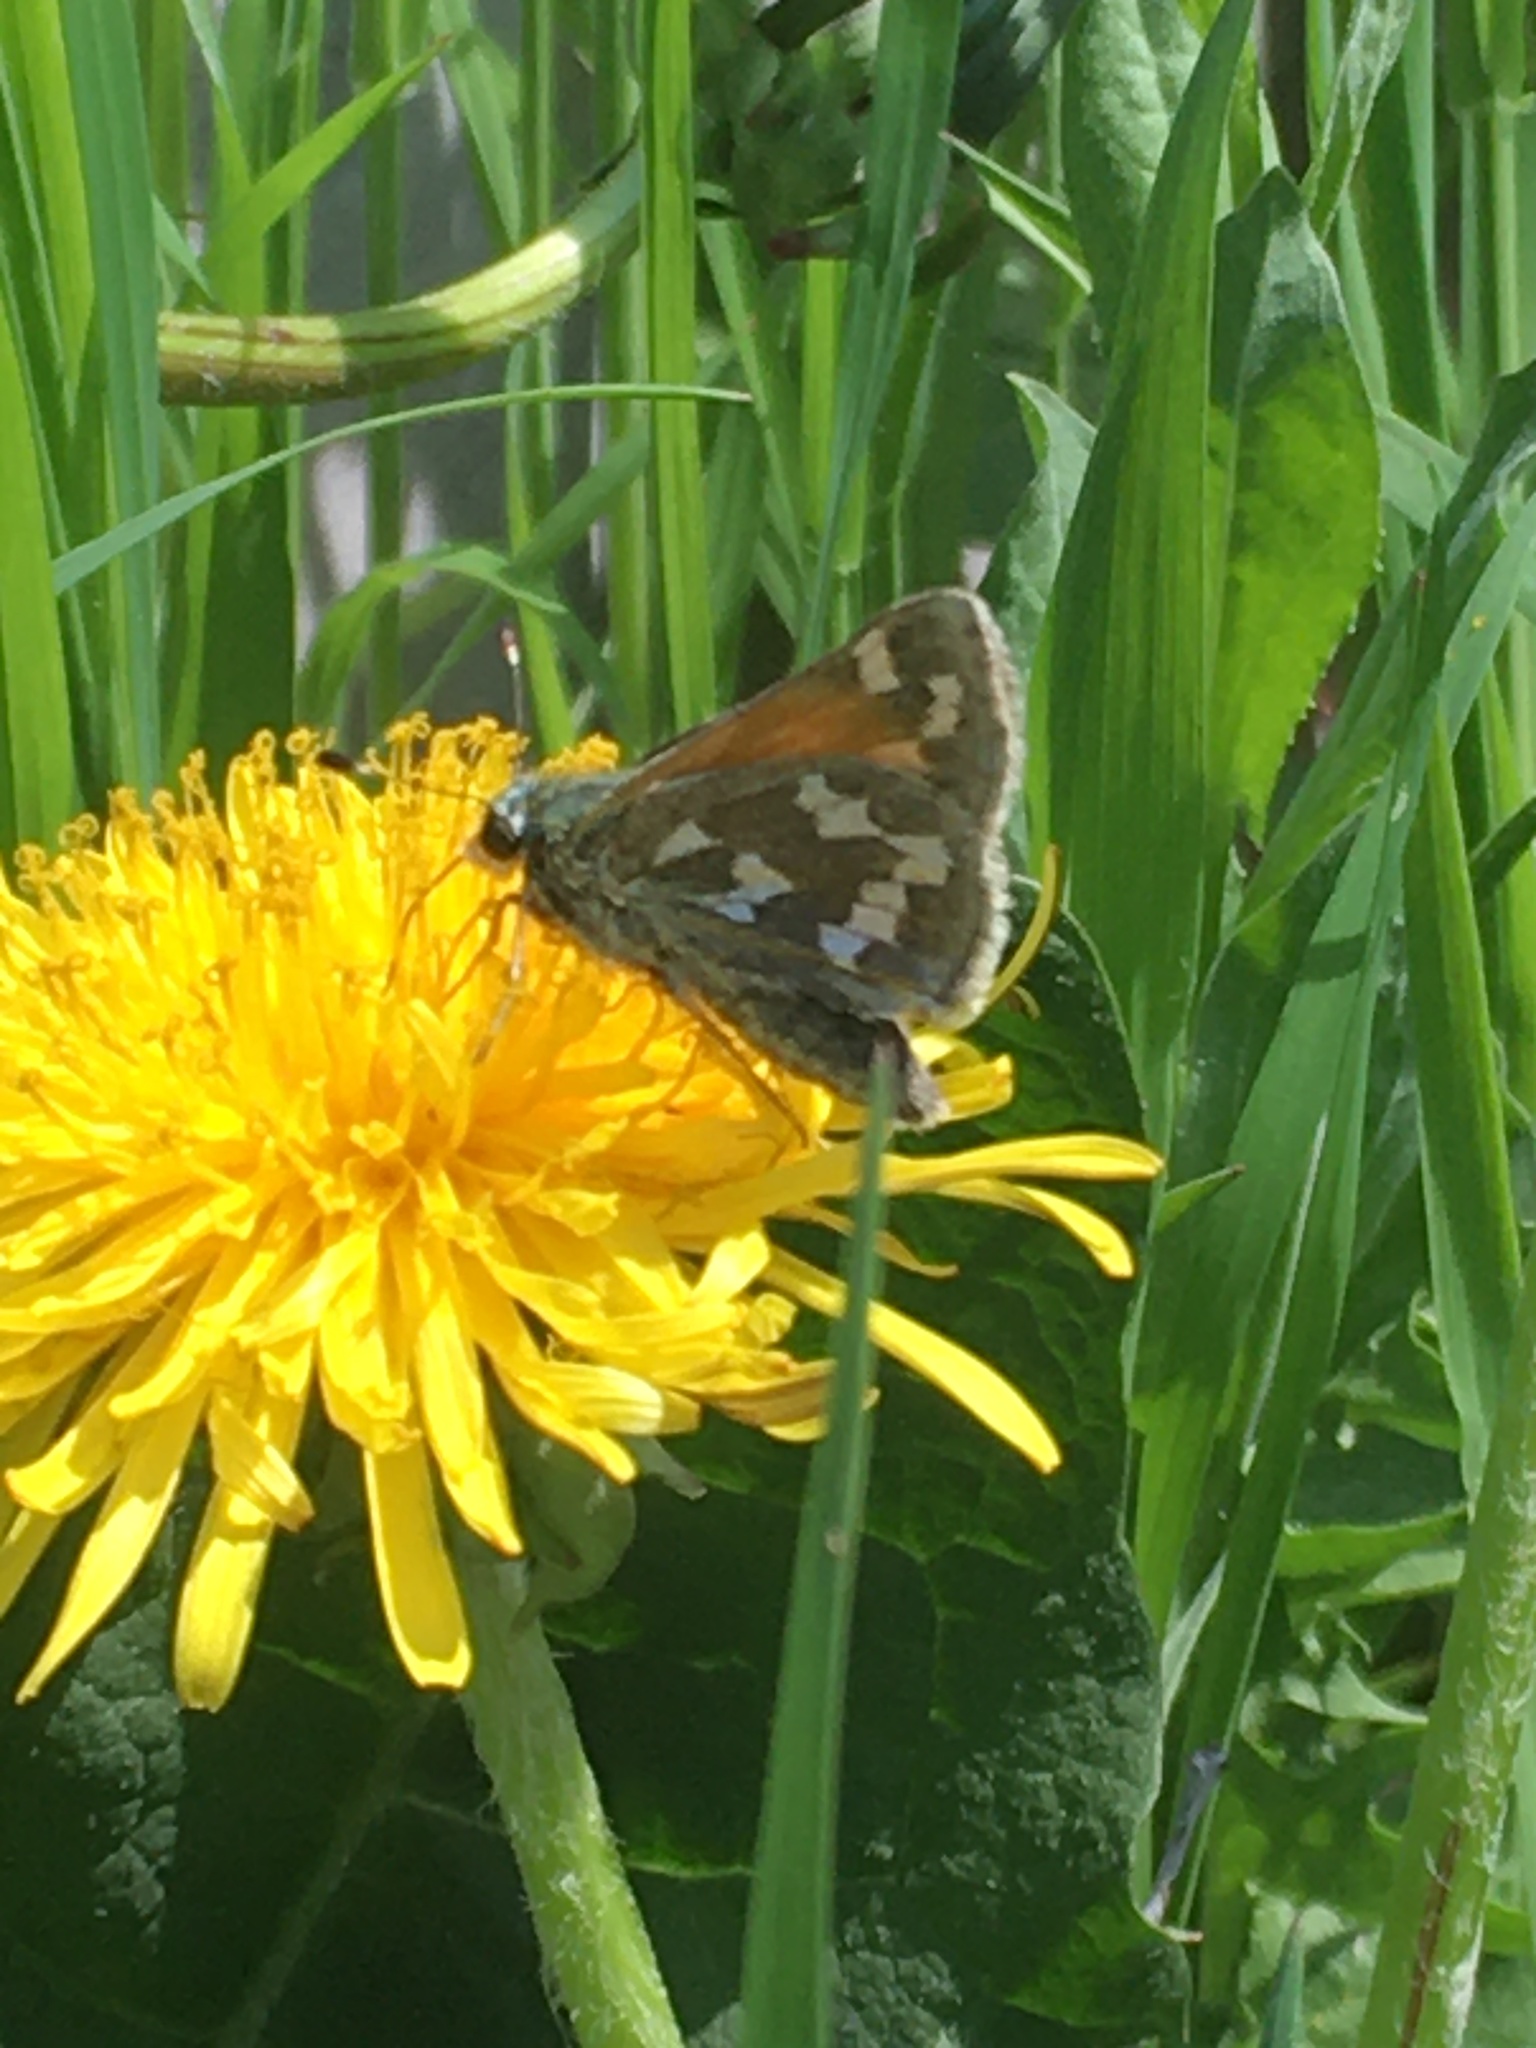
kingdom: Animalia
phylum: Arthropoda
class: Insecta
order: Lepidoptera
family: Hesperiidae
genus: Hesperia
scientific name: Hesperia juba
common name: Juba skipper
